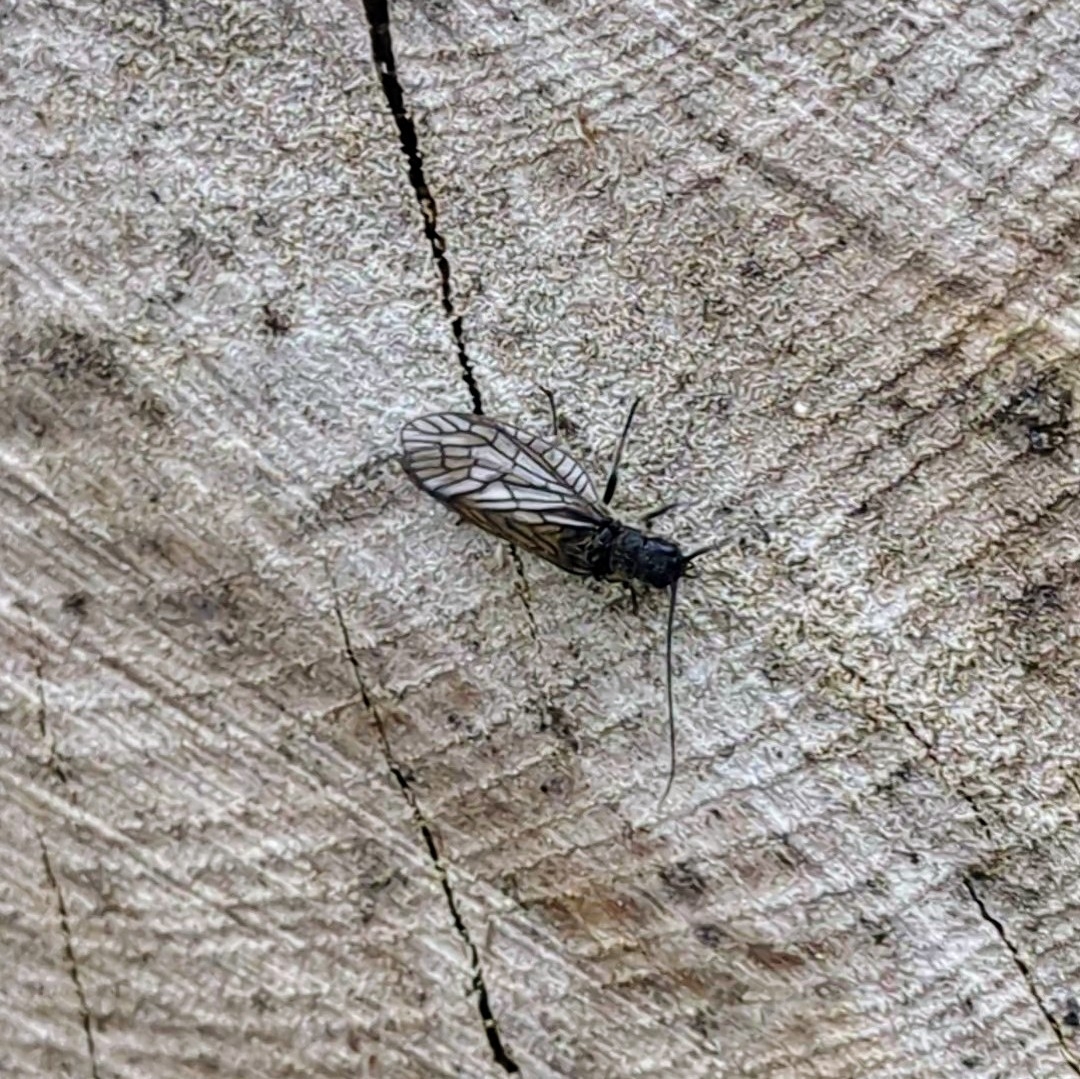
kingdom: Animalia
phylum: Arthropoda
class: Insecta
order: Megaloptera
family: Sialidae
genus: Sialis
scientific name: Sialis
